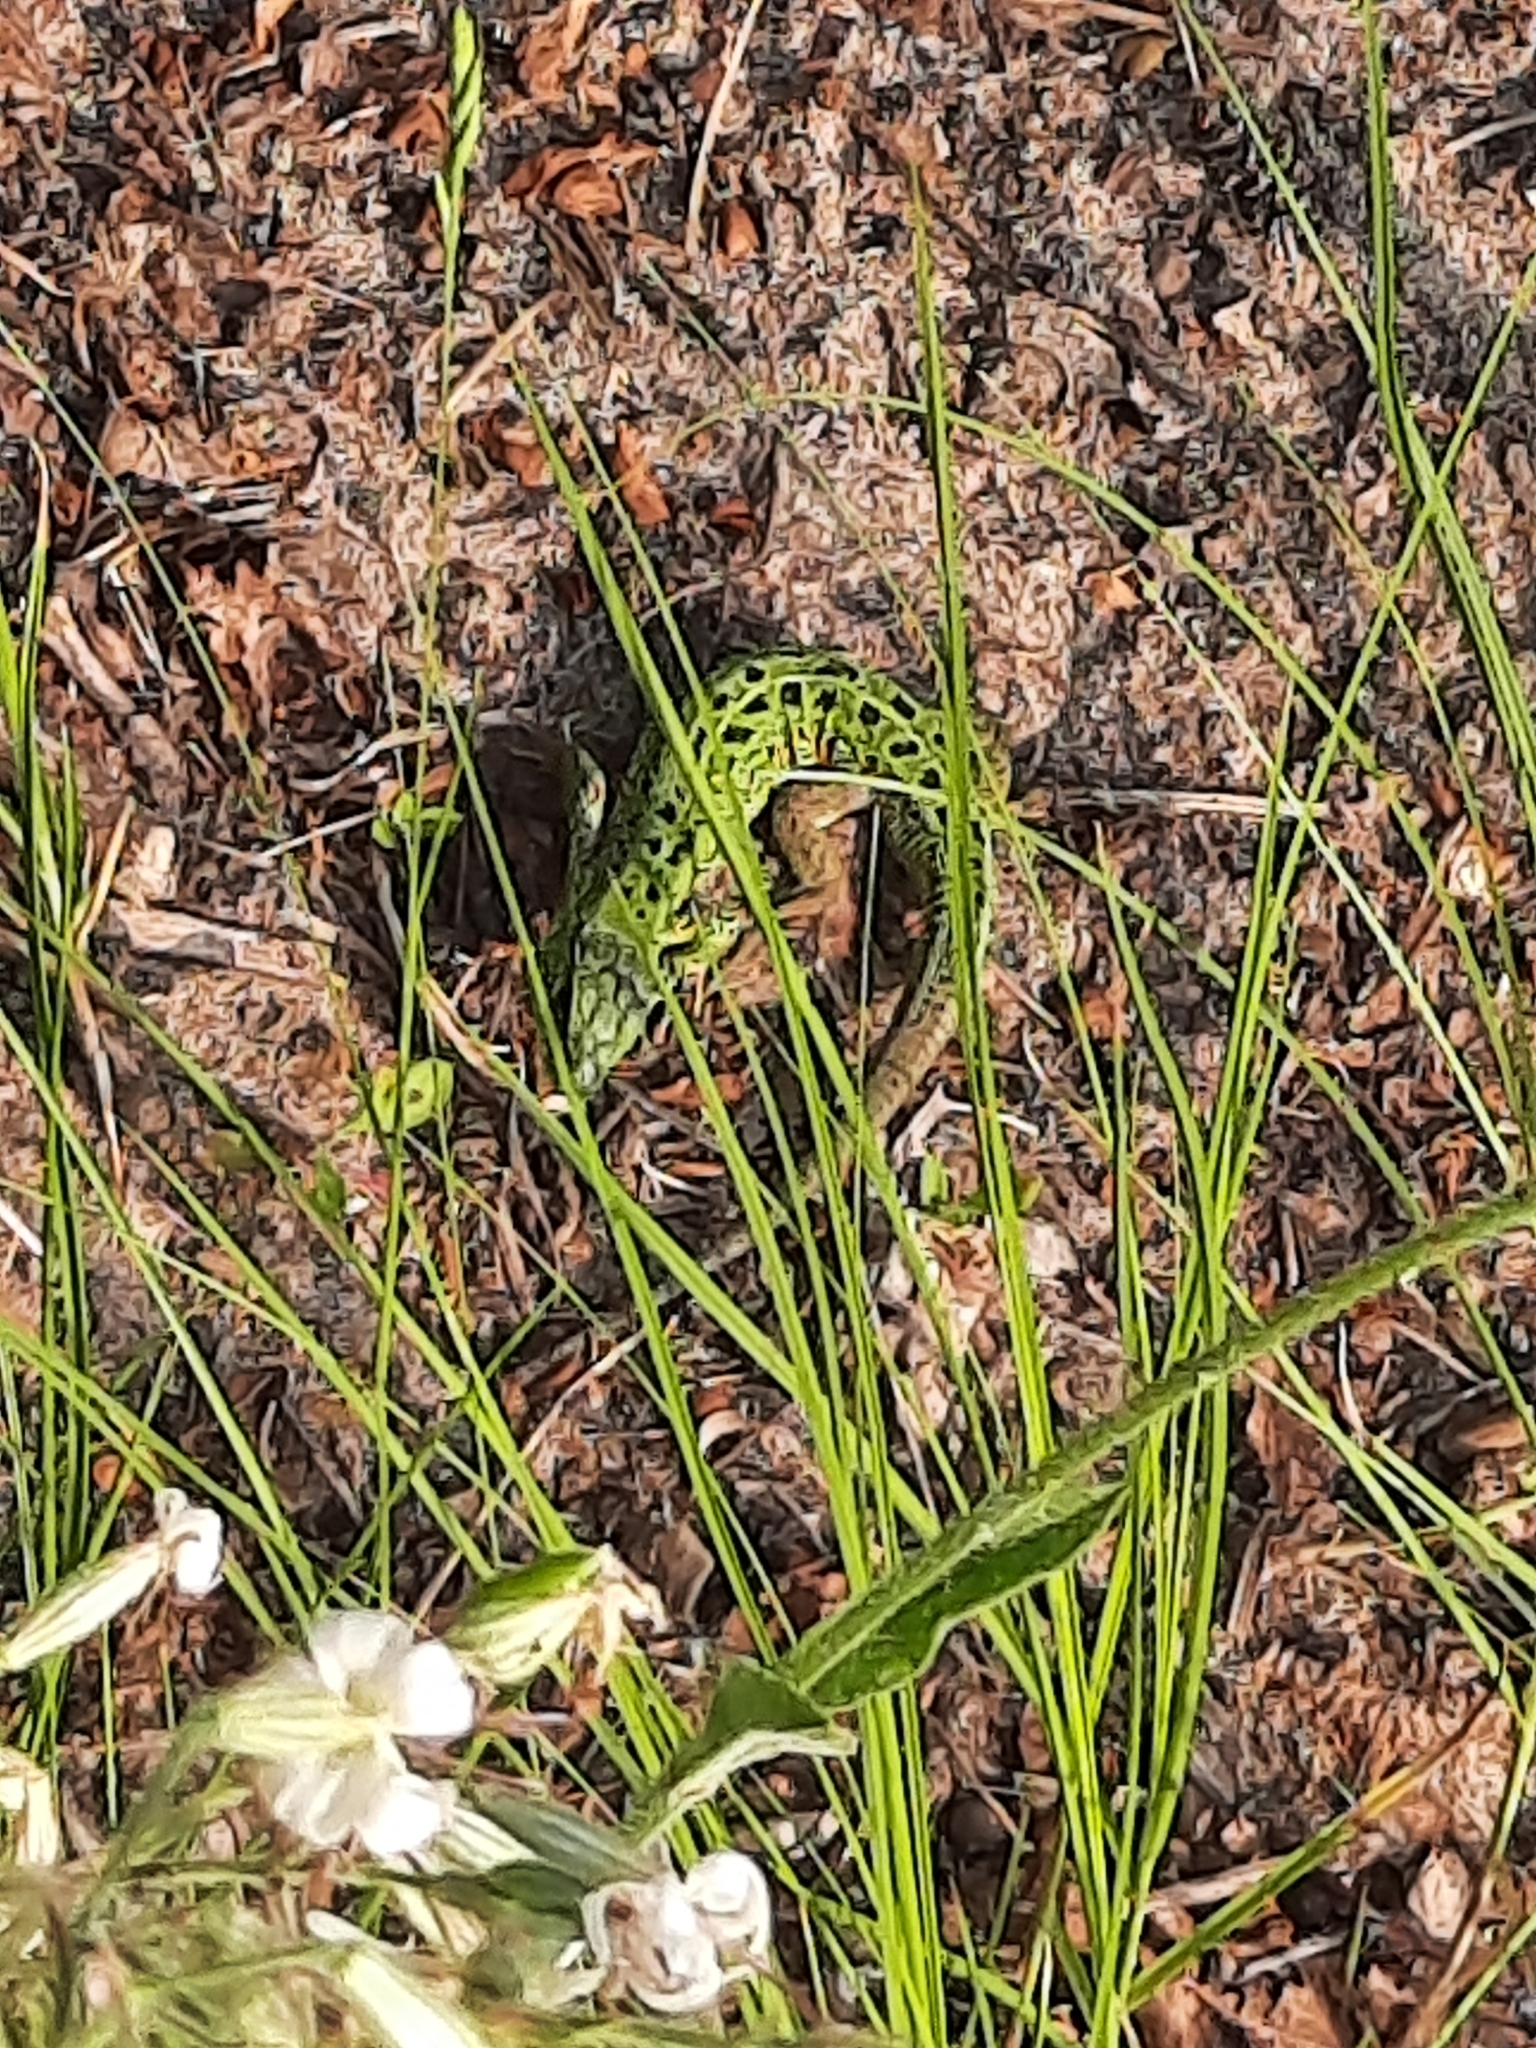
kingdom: Animalia
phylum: Chordata
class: Squamata
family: Lacertidae
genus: Lacerta
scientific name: Lacerta agilis
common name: Sand lizard
